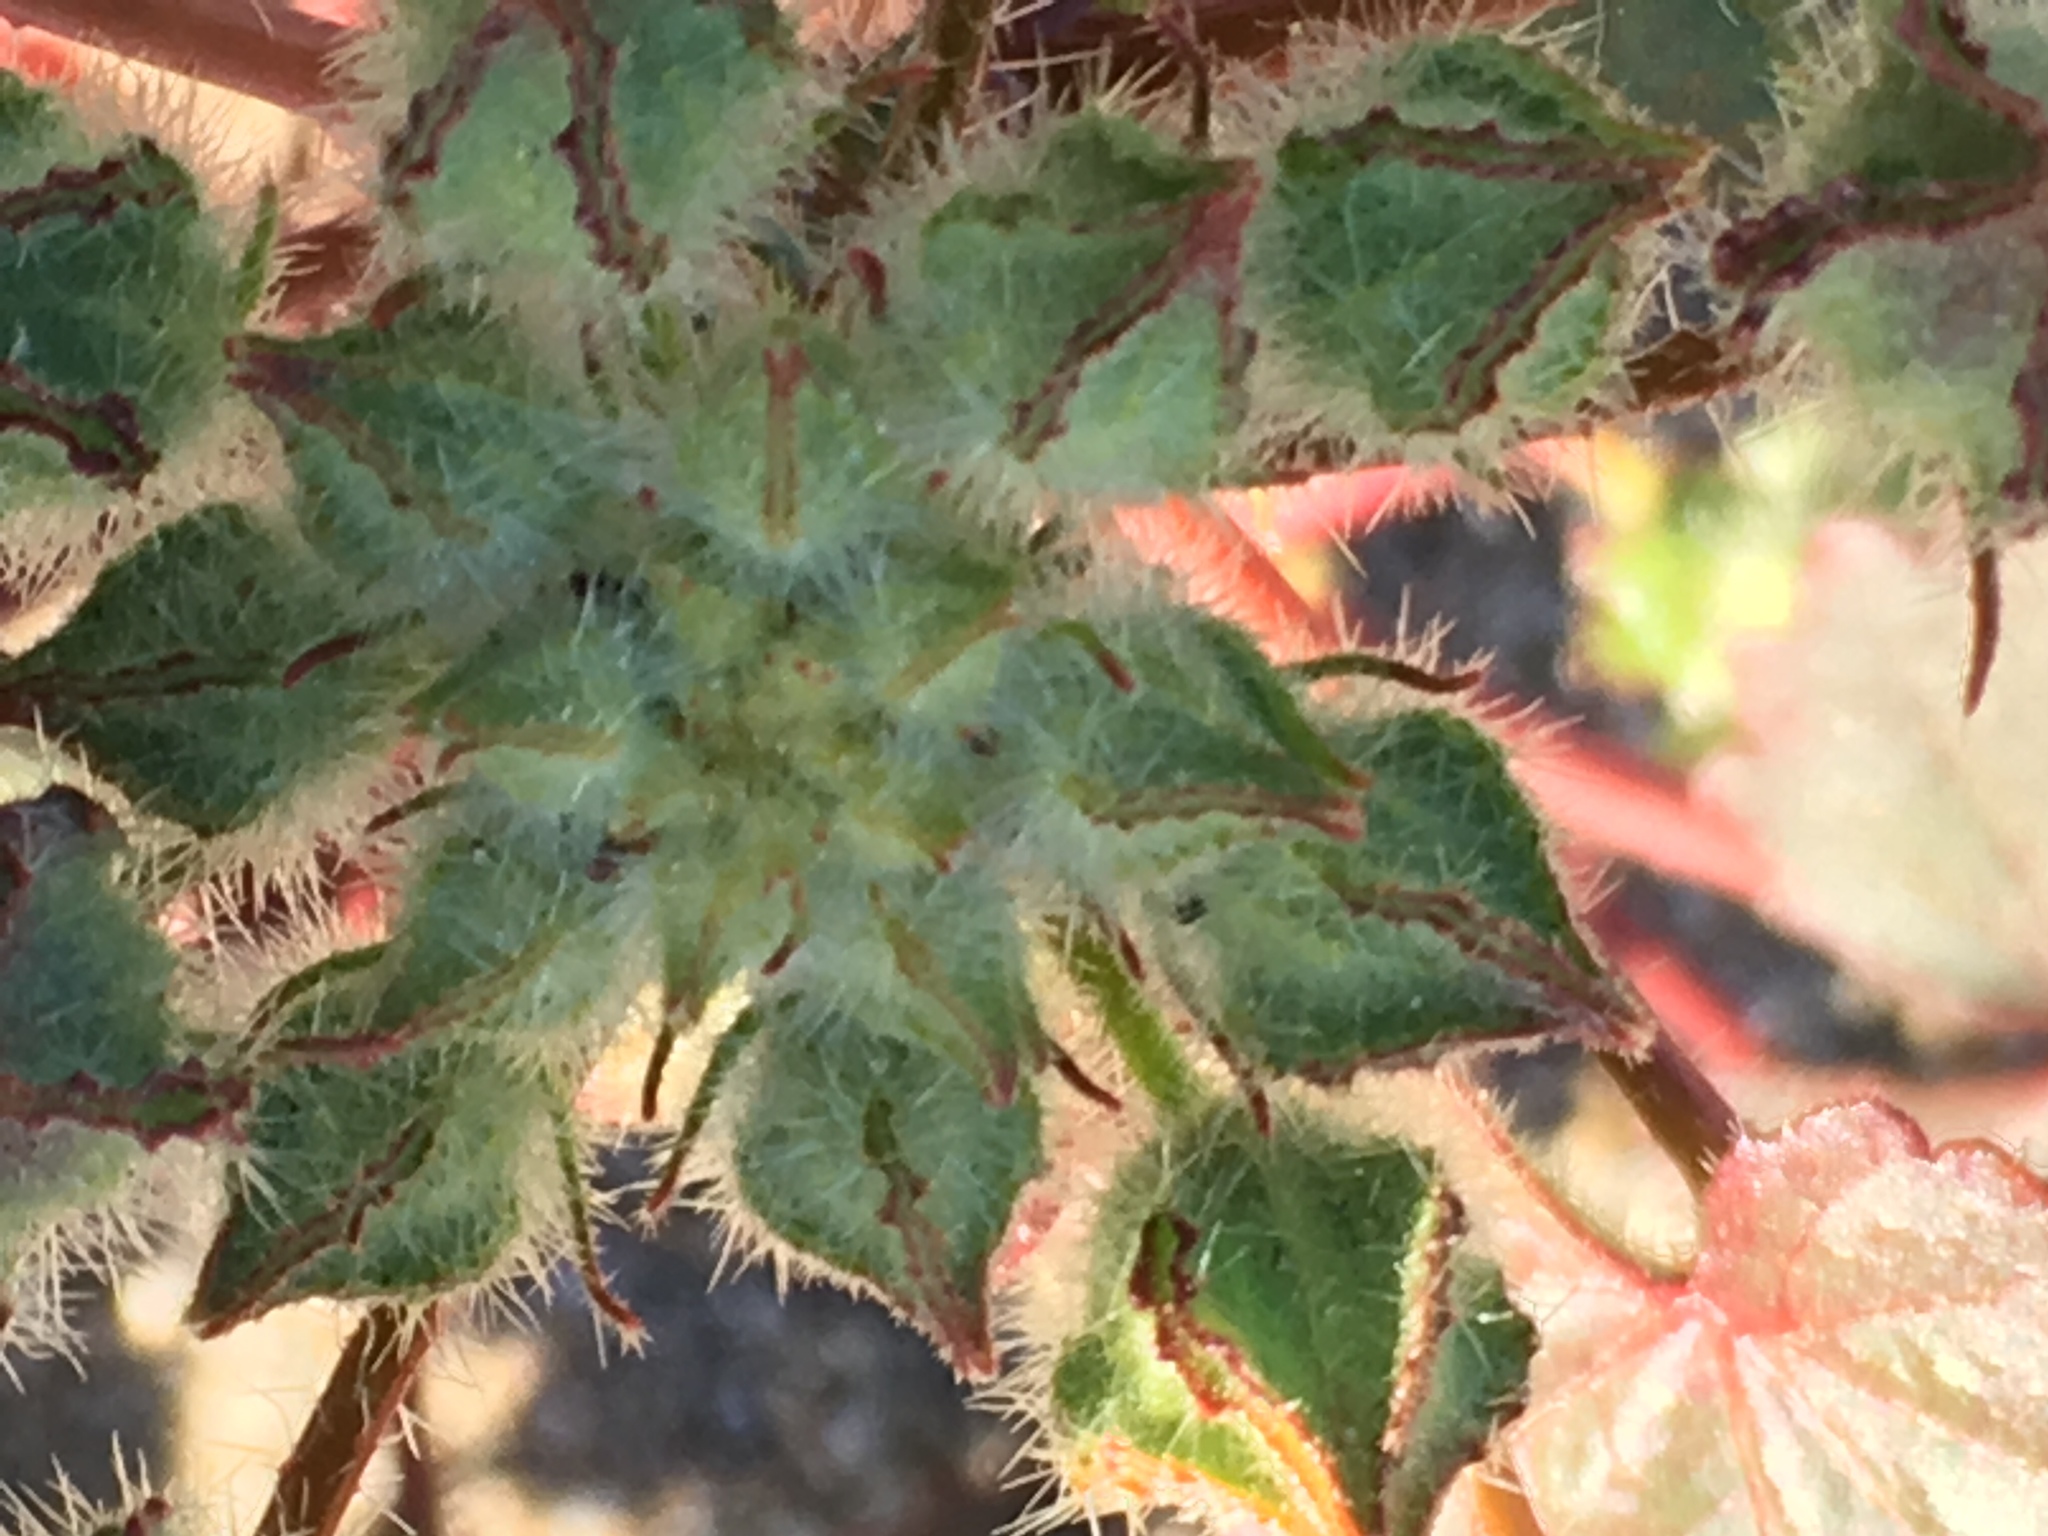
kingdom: Plantae
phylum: Tracheophyta
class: Magnoliopsida
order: Malvales
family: Malvaceae
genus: Eremalche
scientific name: Eremalche rotundifolia
